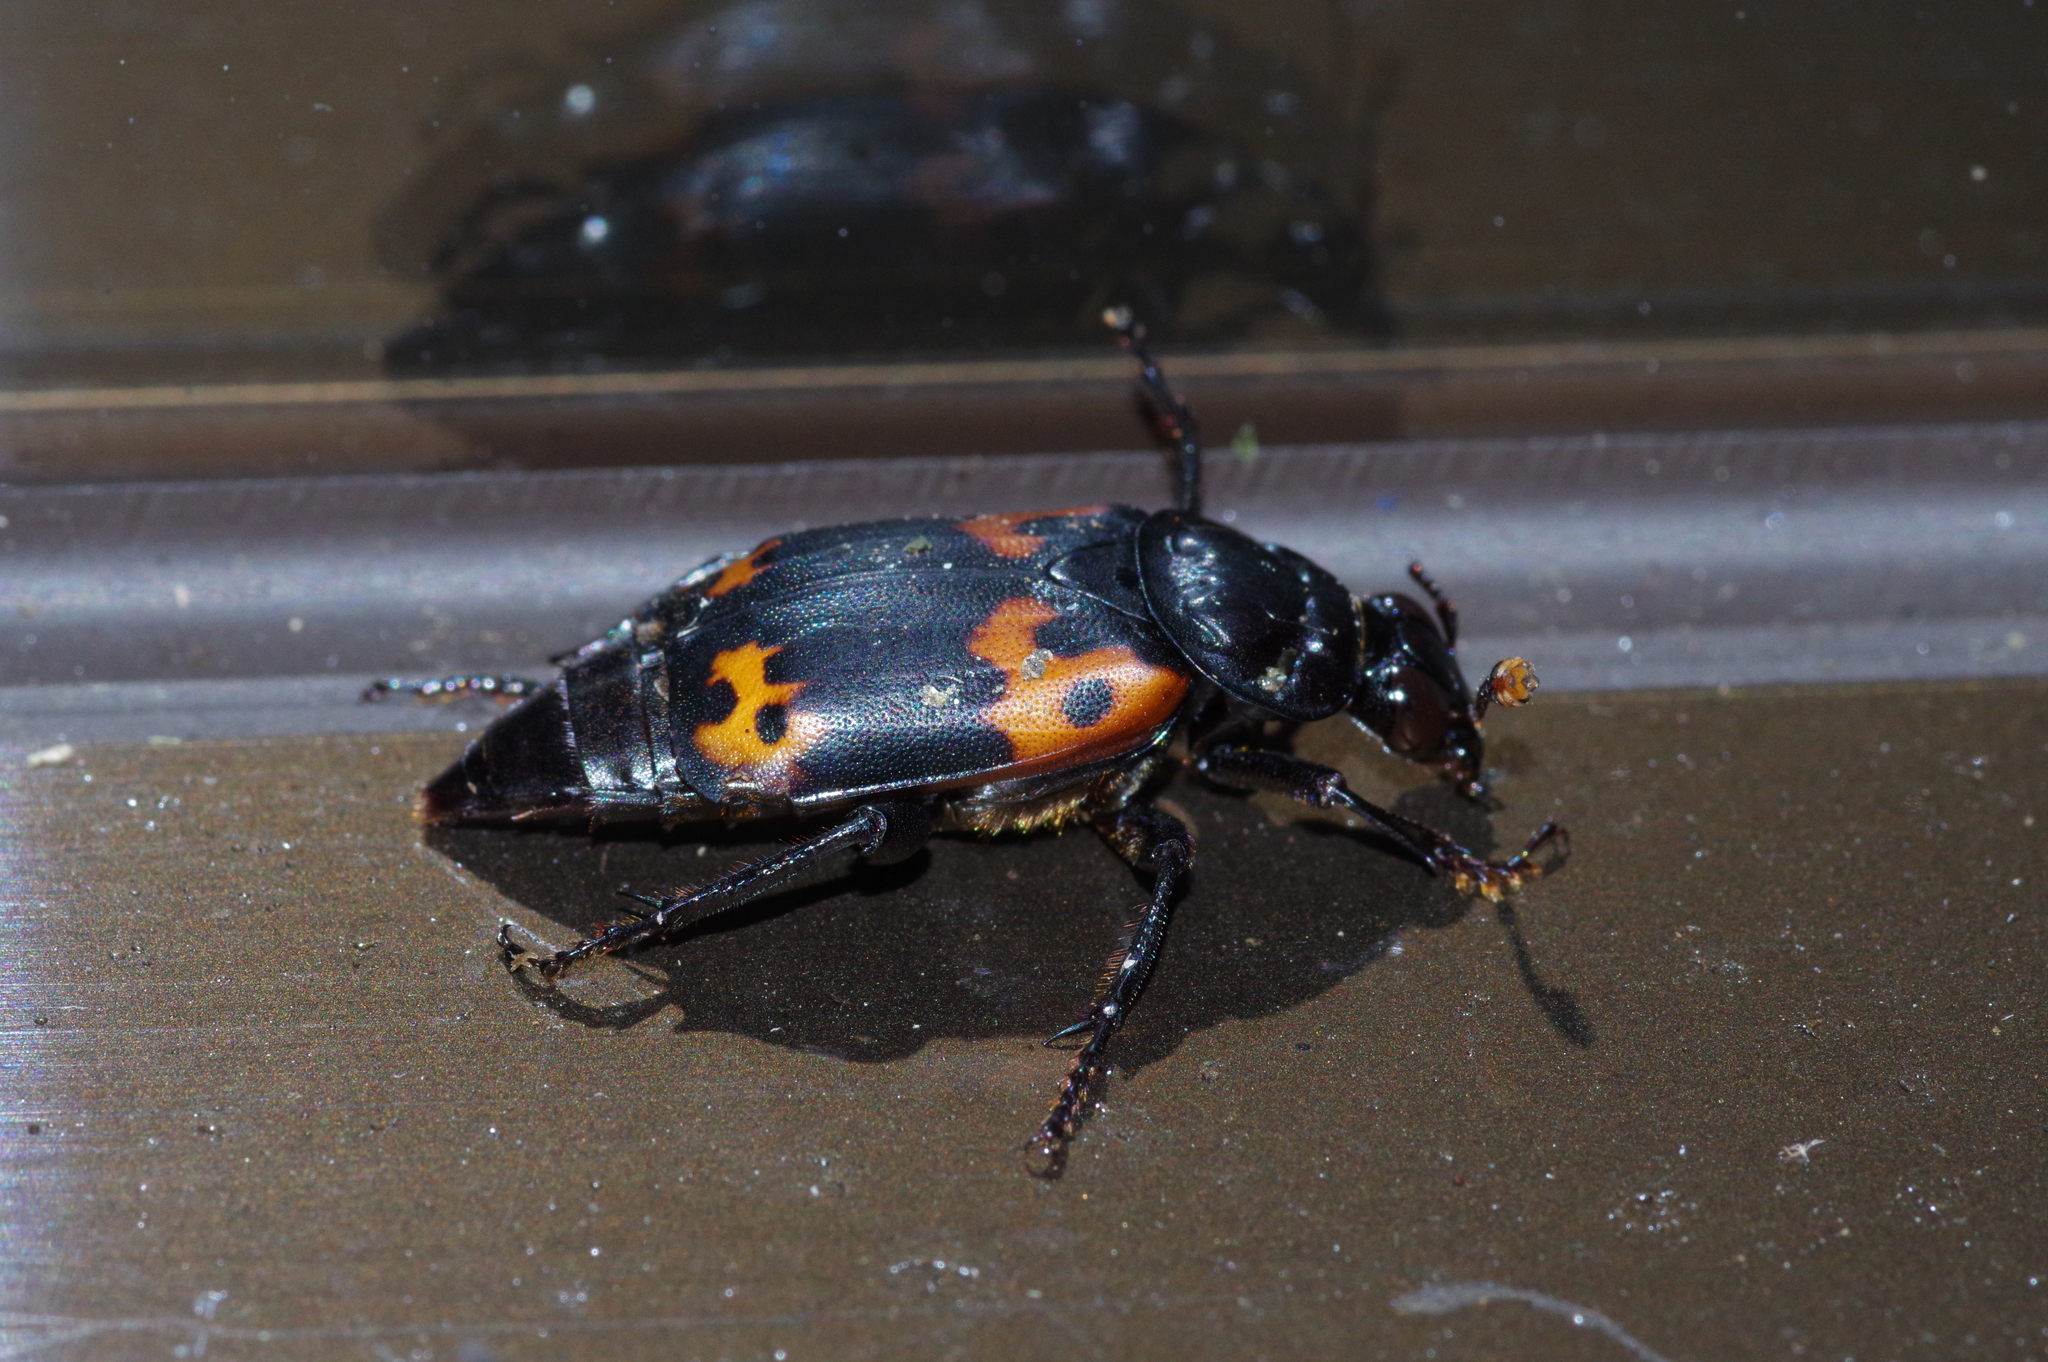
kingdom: Animalia
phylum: Arthropoda
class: Insecta
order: Coleoptera
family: Staphylinidae
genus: Nicrophorus
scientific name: Nicrophorus nepalensis
